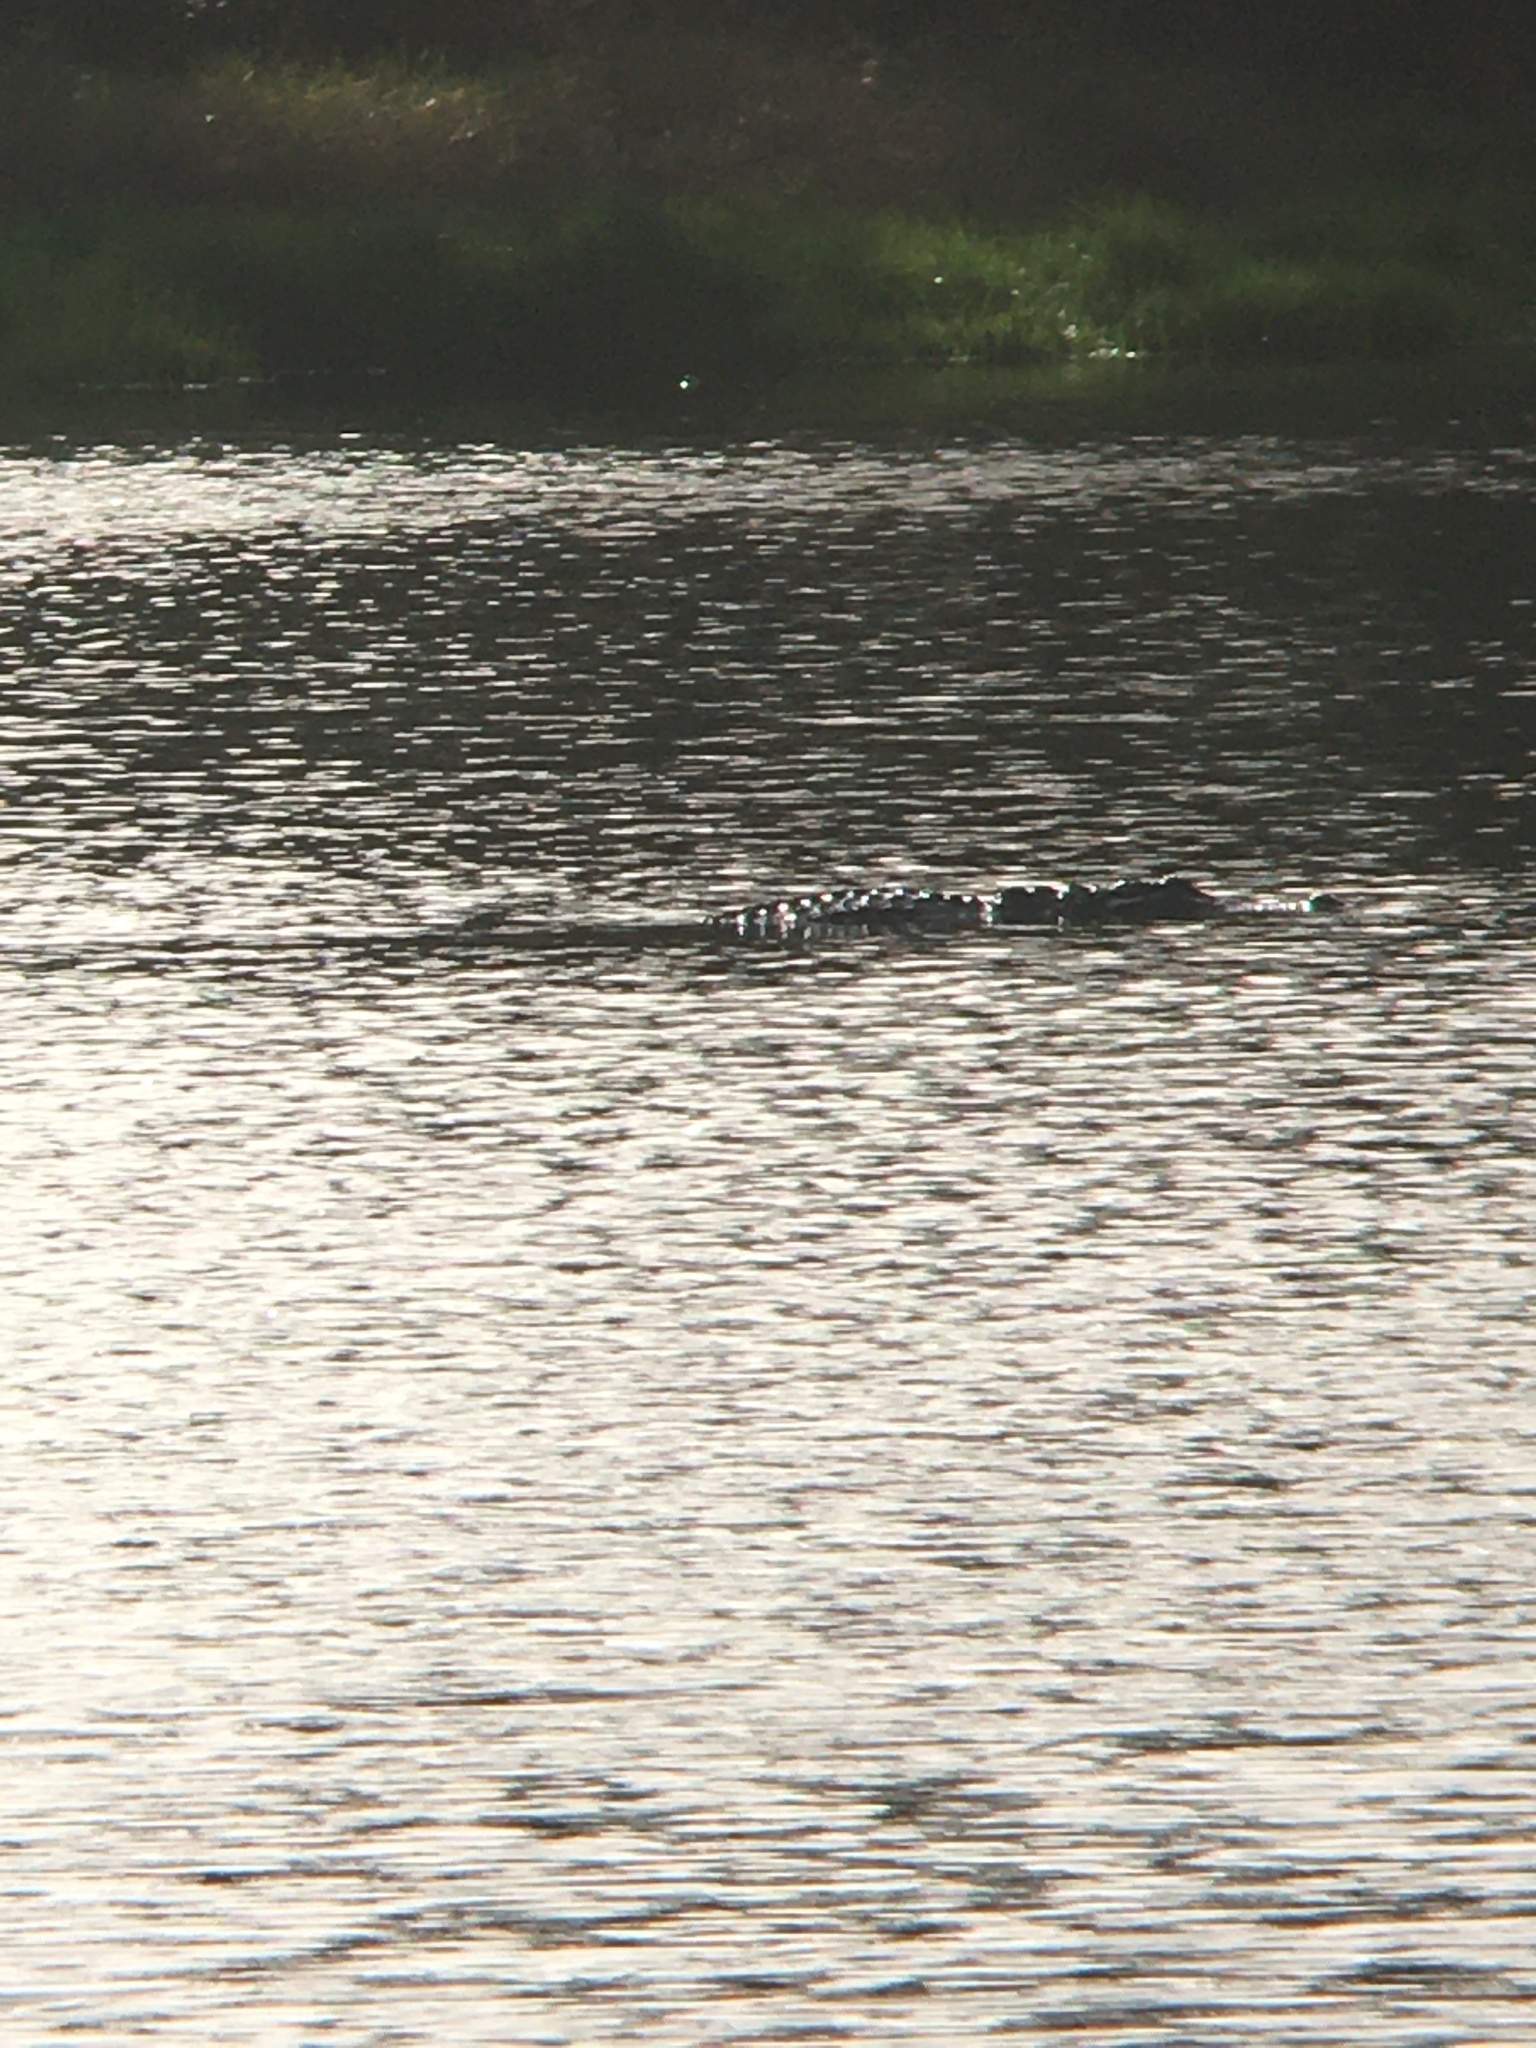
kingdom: Animalia
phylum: Chordata
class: Crocodylia
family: Alligatoridae
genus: Alligator
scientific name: Alligator mississippiensis
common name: American alligator
